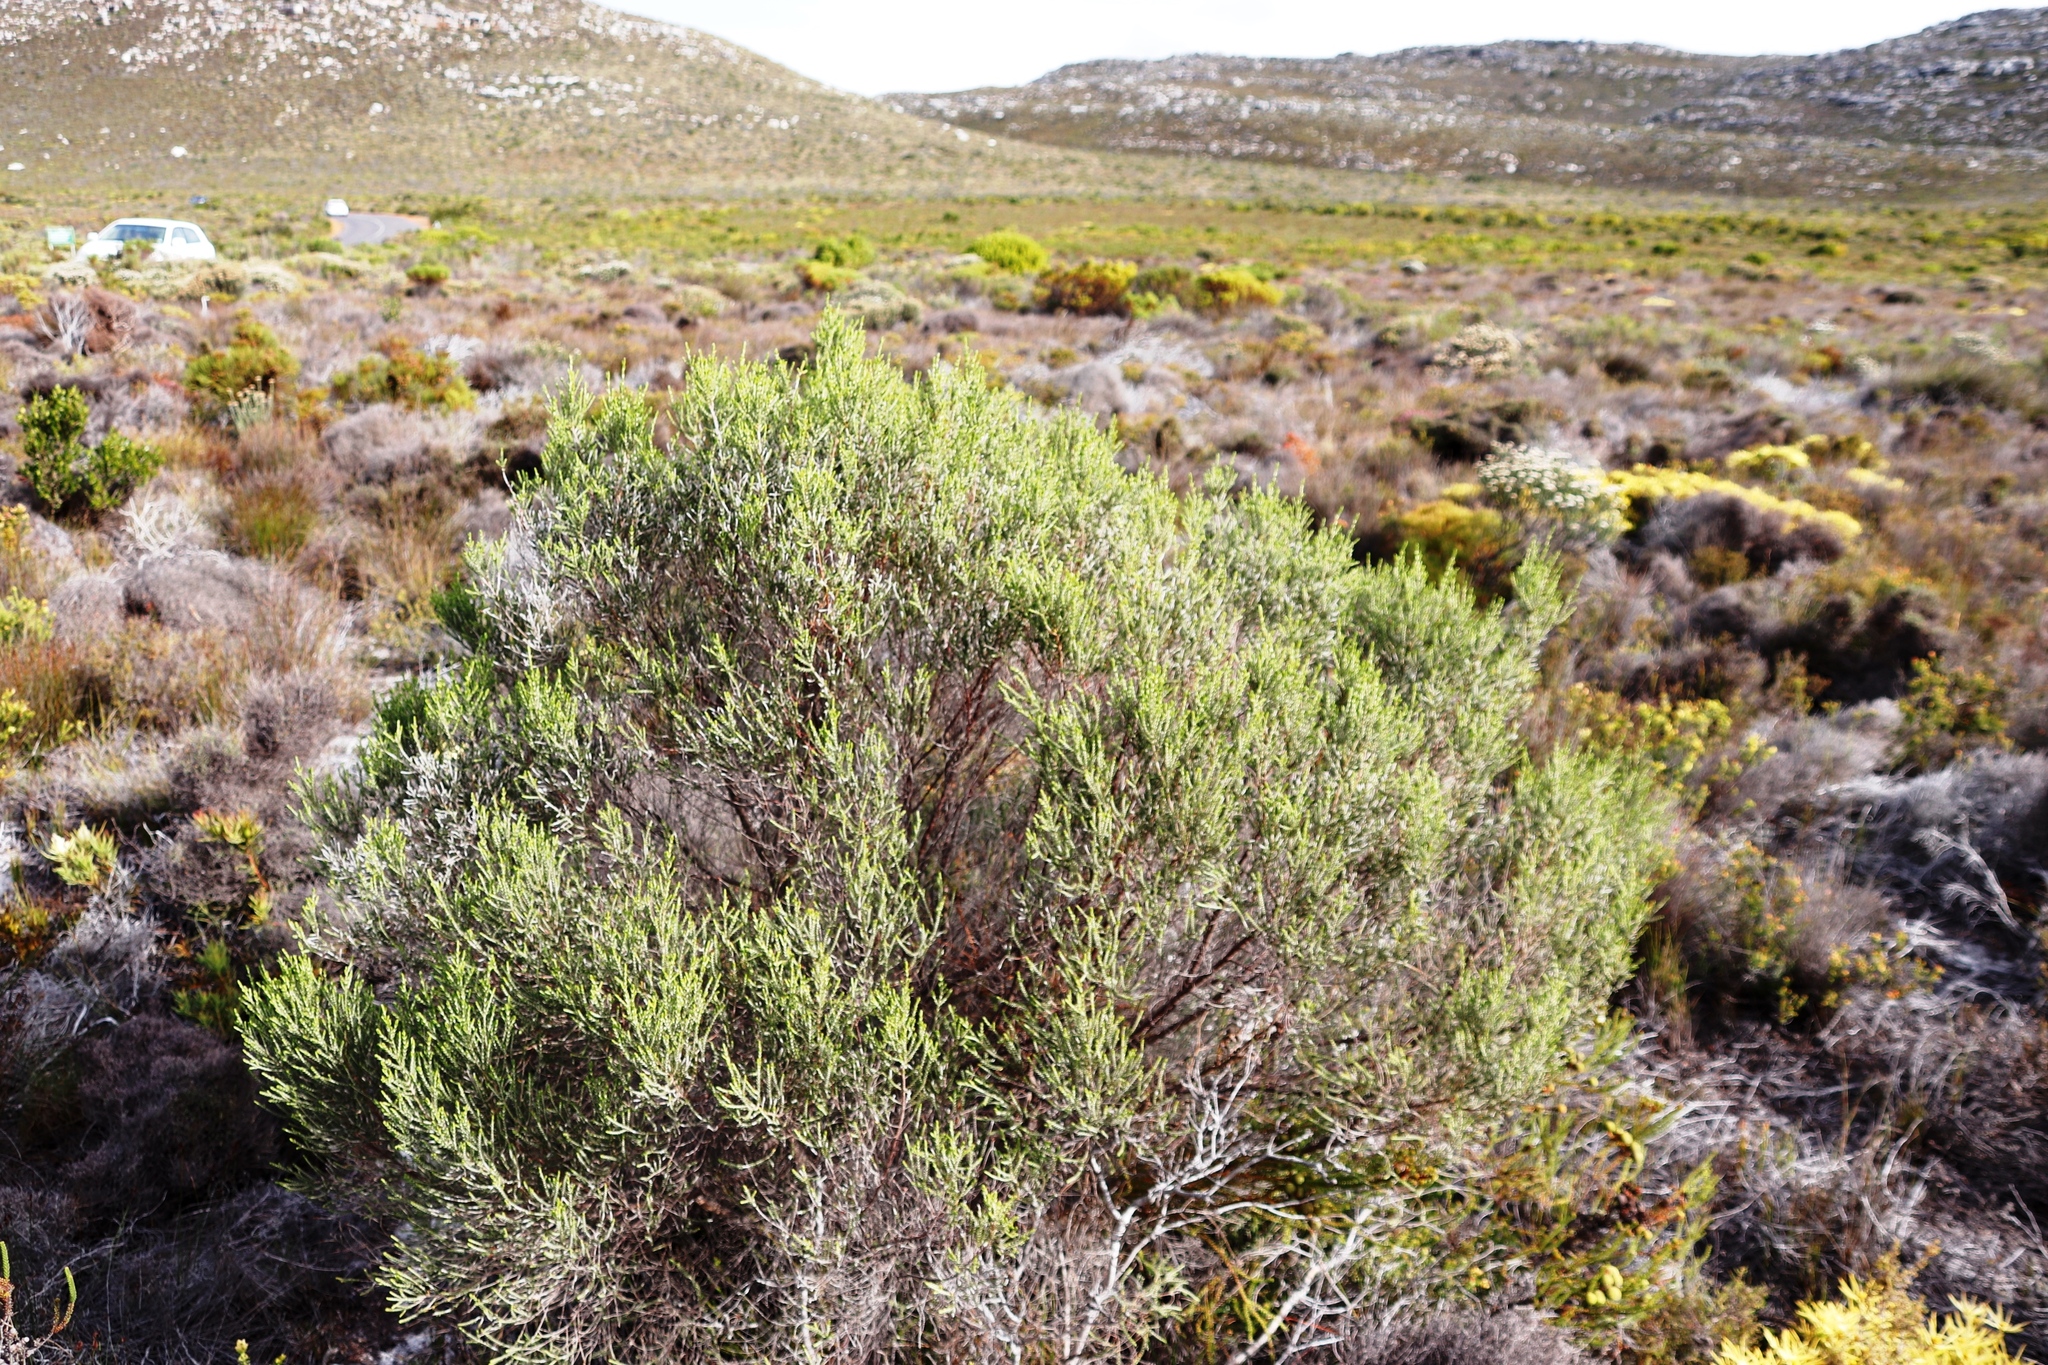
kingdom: Plantae
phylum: Tracheophyta
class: Magnoliopsida
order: Malvales
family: Thymelaeaceae
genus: Passerina
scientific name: Passerina corymbosa
